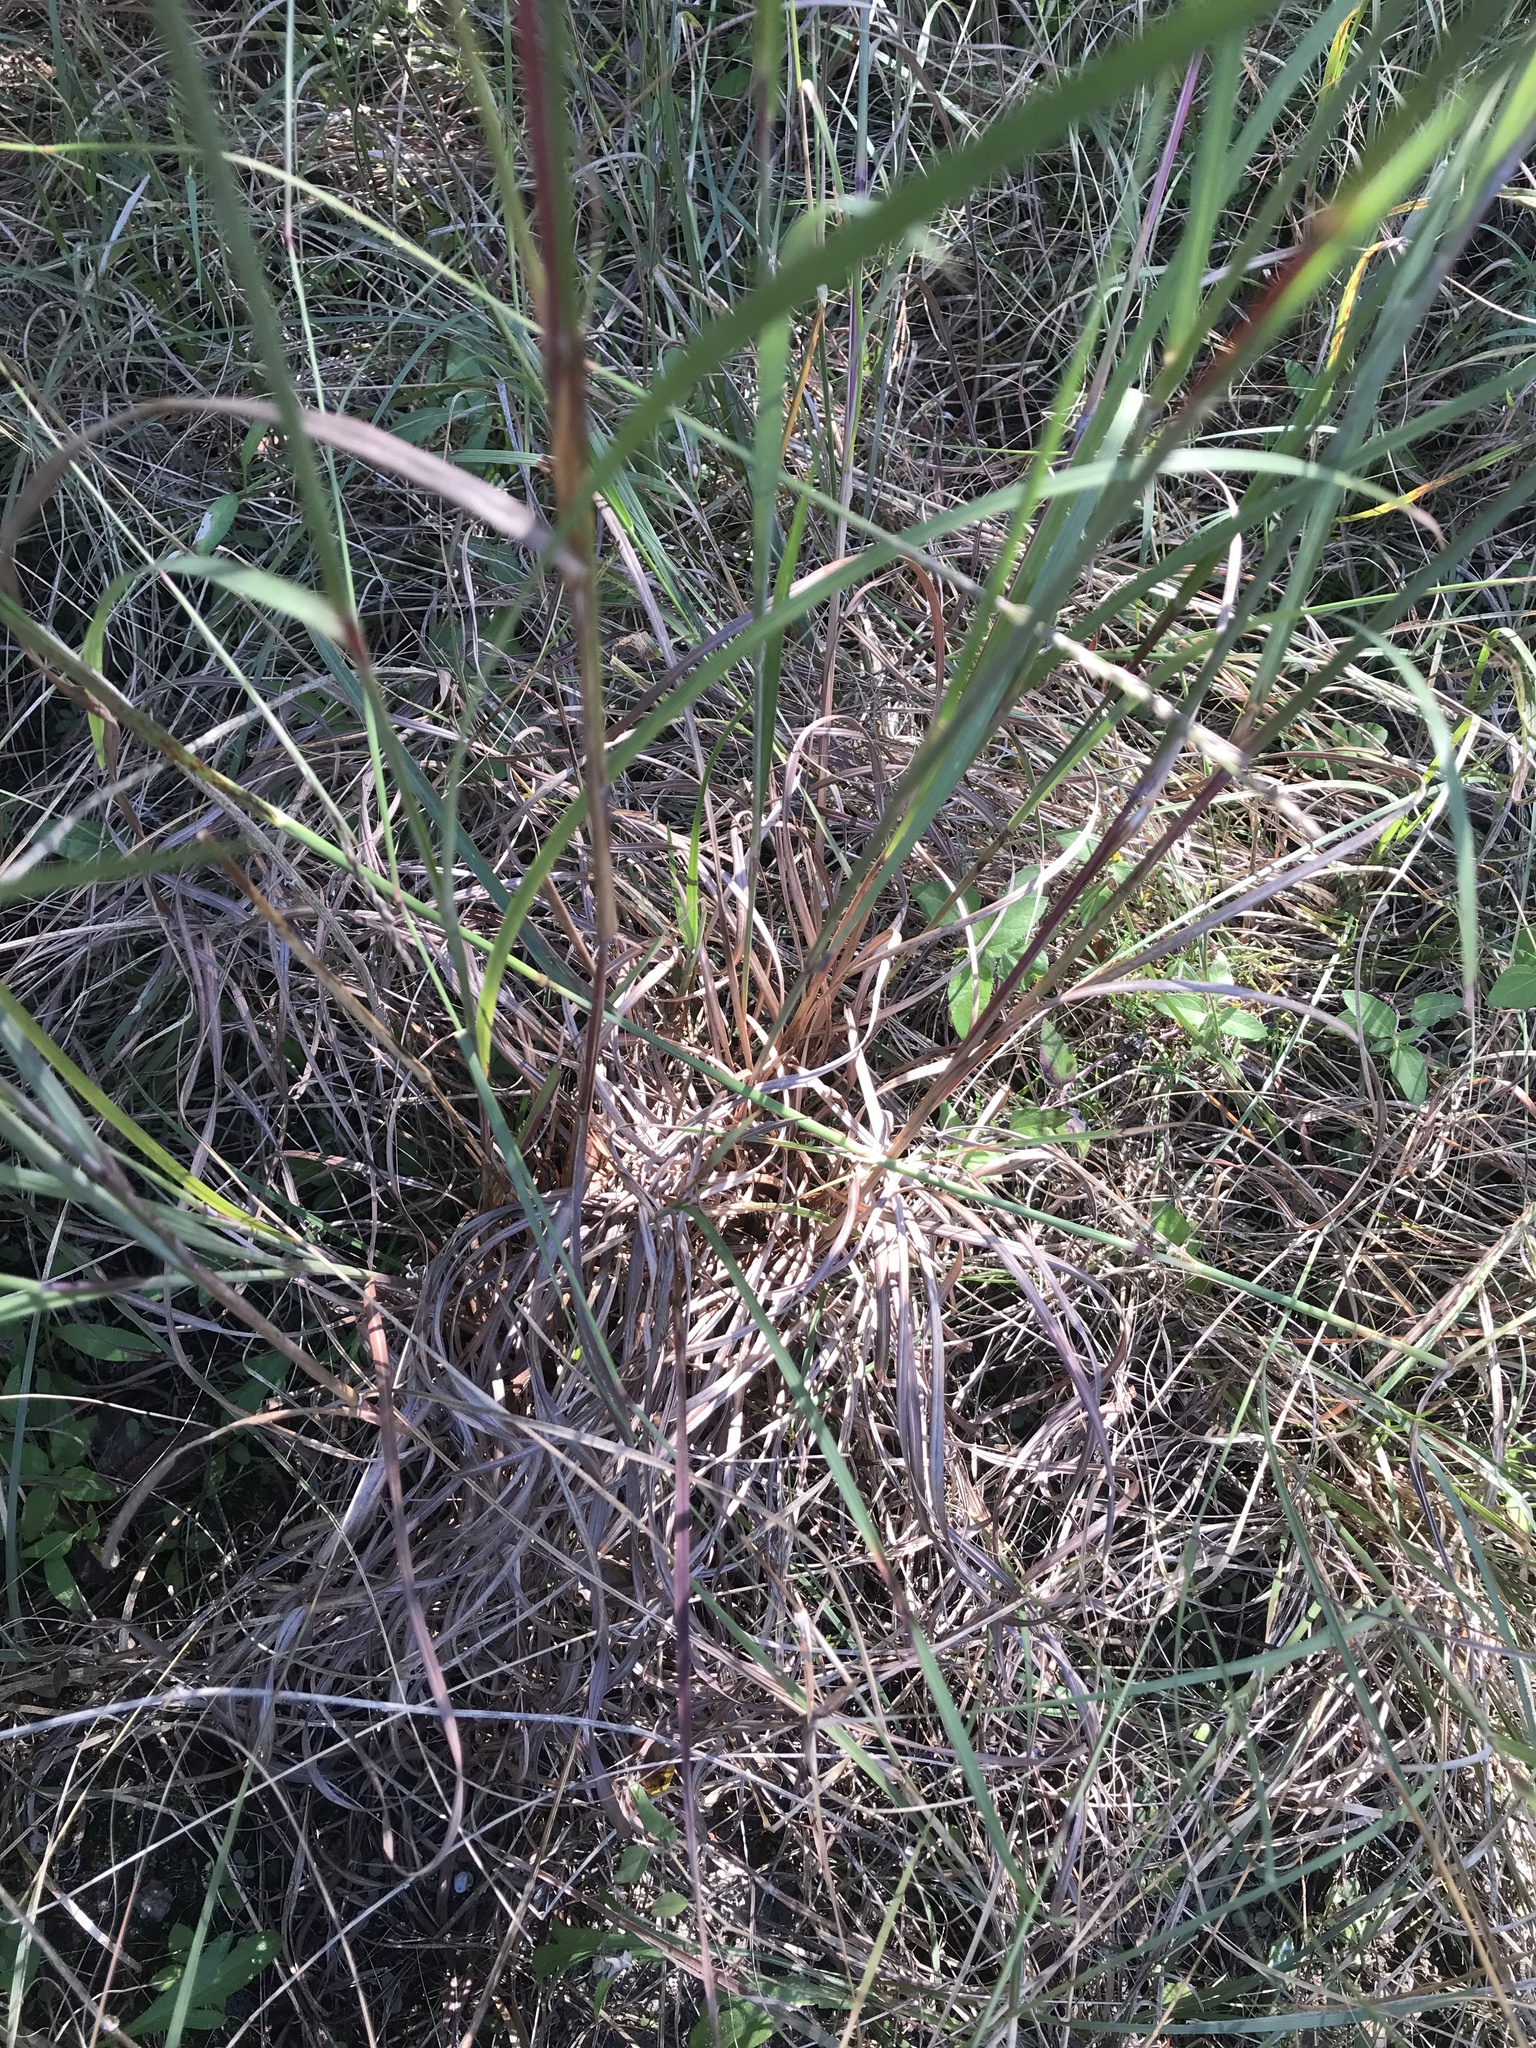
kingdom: Plantae
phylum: Tracheophyta
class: Liliopsida
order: Poales
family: Poaceae
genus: Schizachyrium
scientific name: Schizachyrium scoparium
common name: Little bluestem
